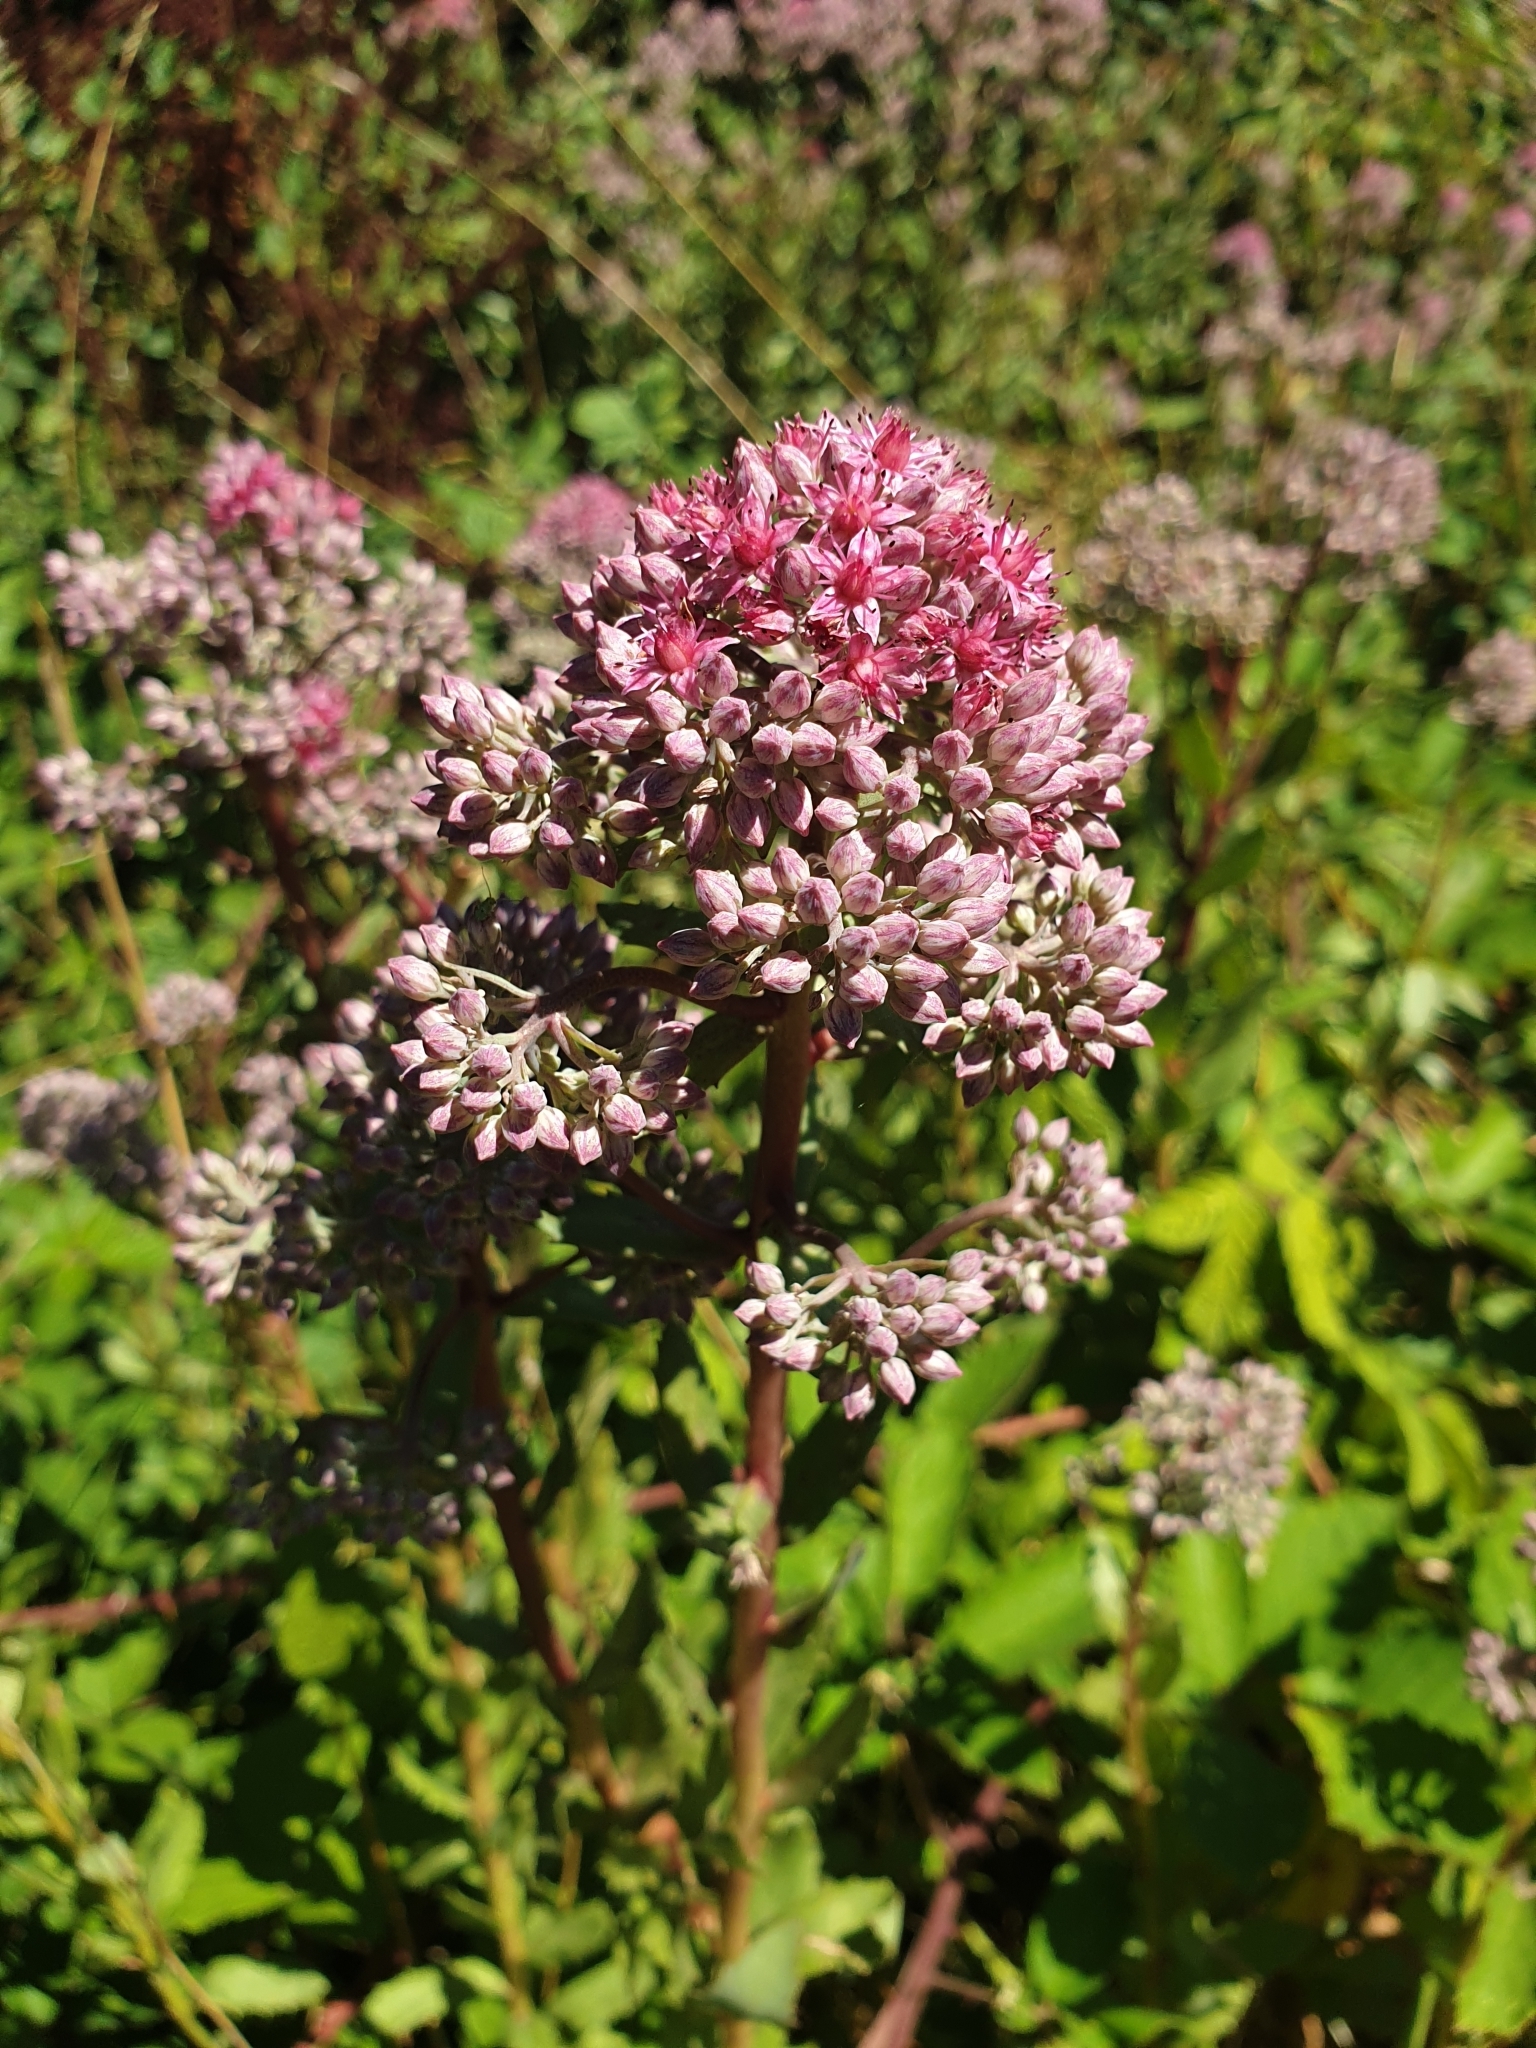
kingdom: Plantae
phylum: Tracheophyta
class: Magnoliopsida
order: Saxifragales
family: Crassulaceae
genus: Hylotelephium
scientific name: Hylotelephium telephium
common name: Live-forever
